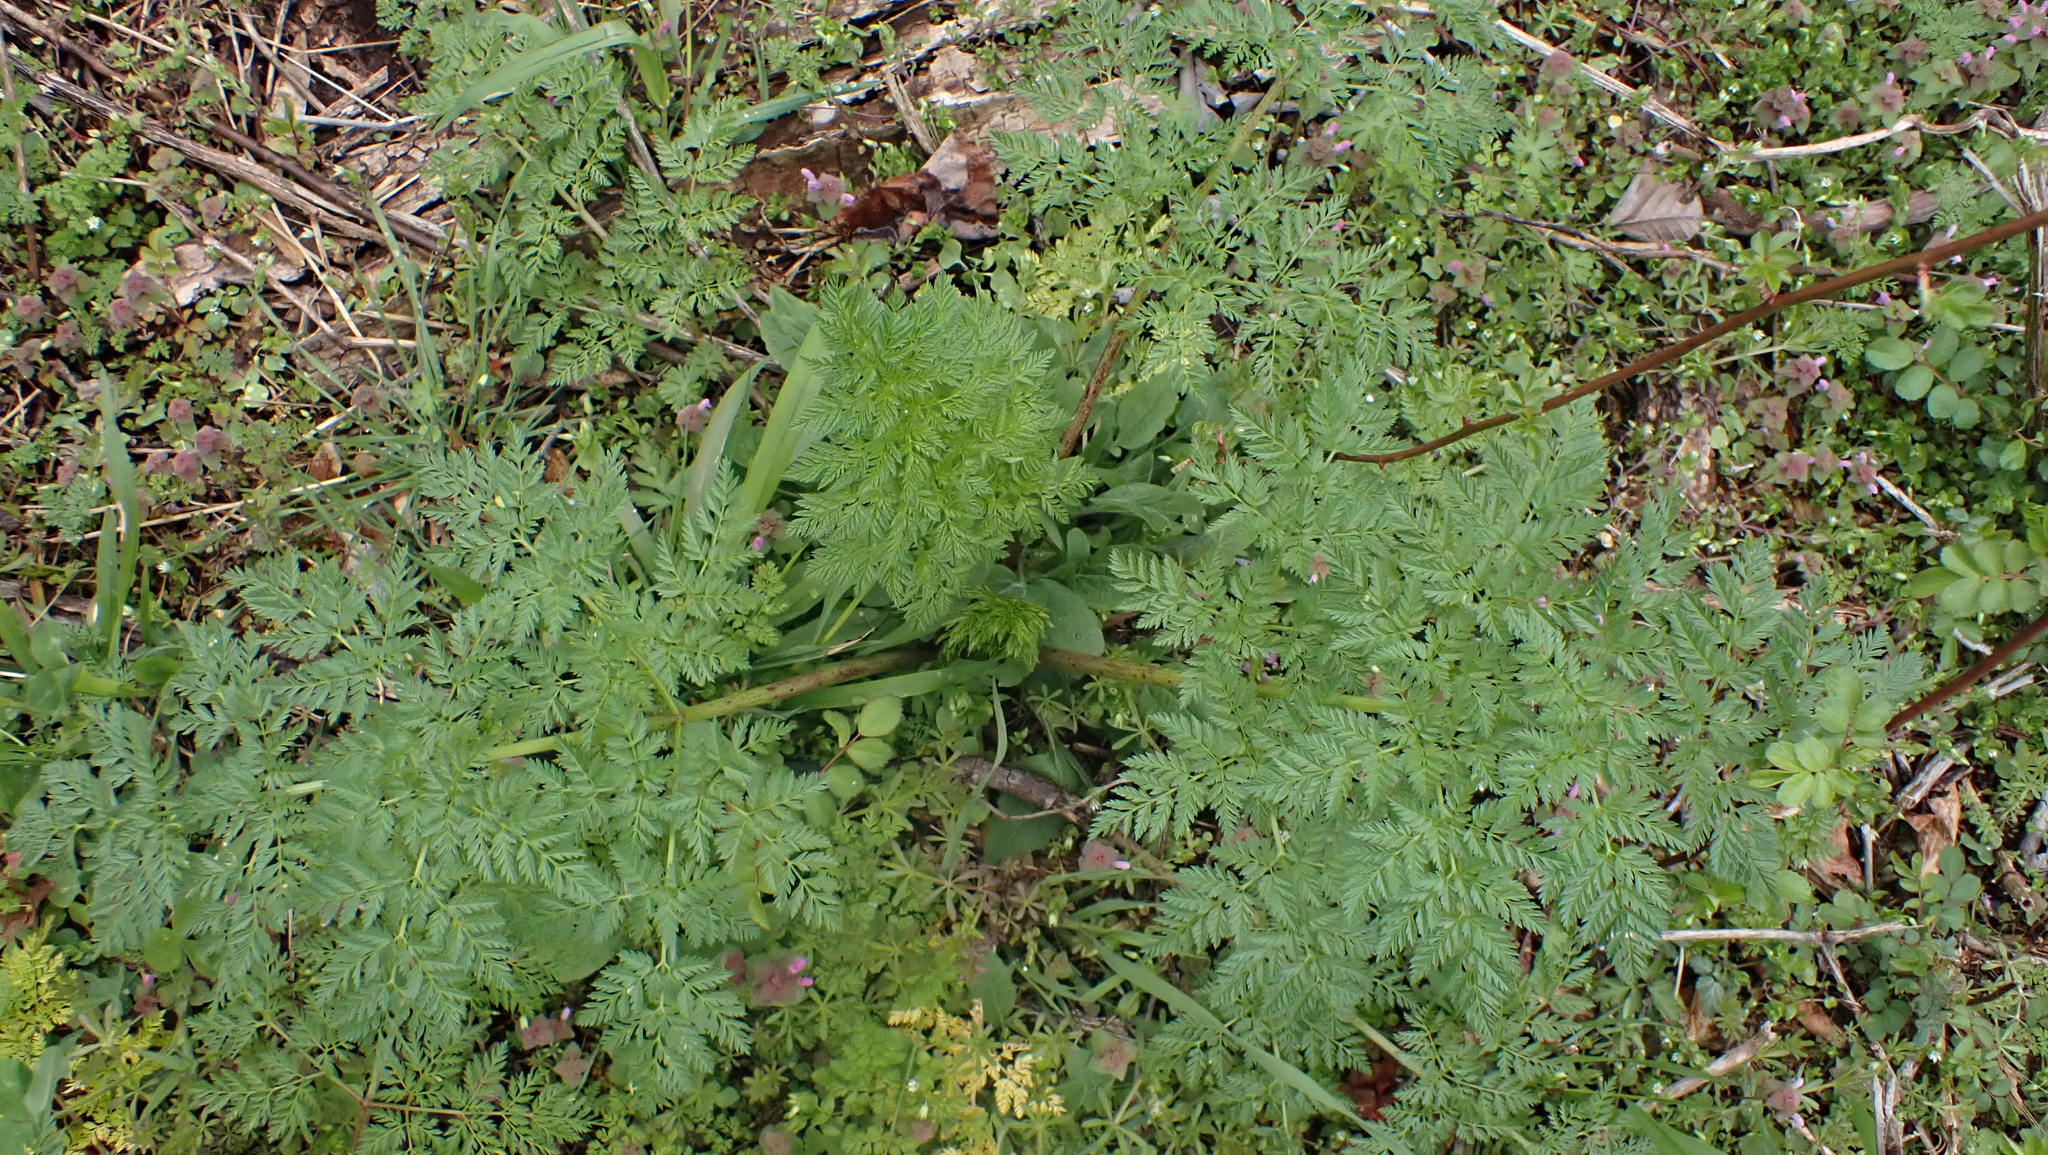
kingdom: Plantae
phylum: Tracheophyta
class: Magnoliopsida
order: Apiales
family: Apiaceae
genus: Conium
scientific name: Conium maculatum
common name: Hemlock
